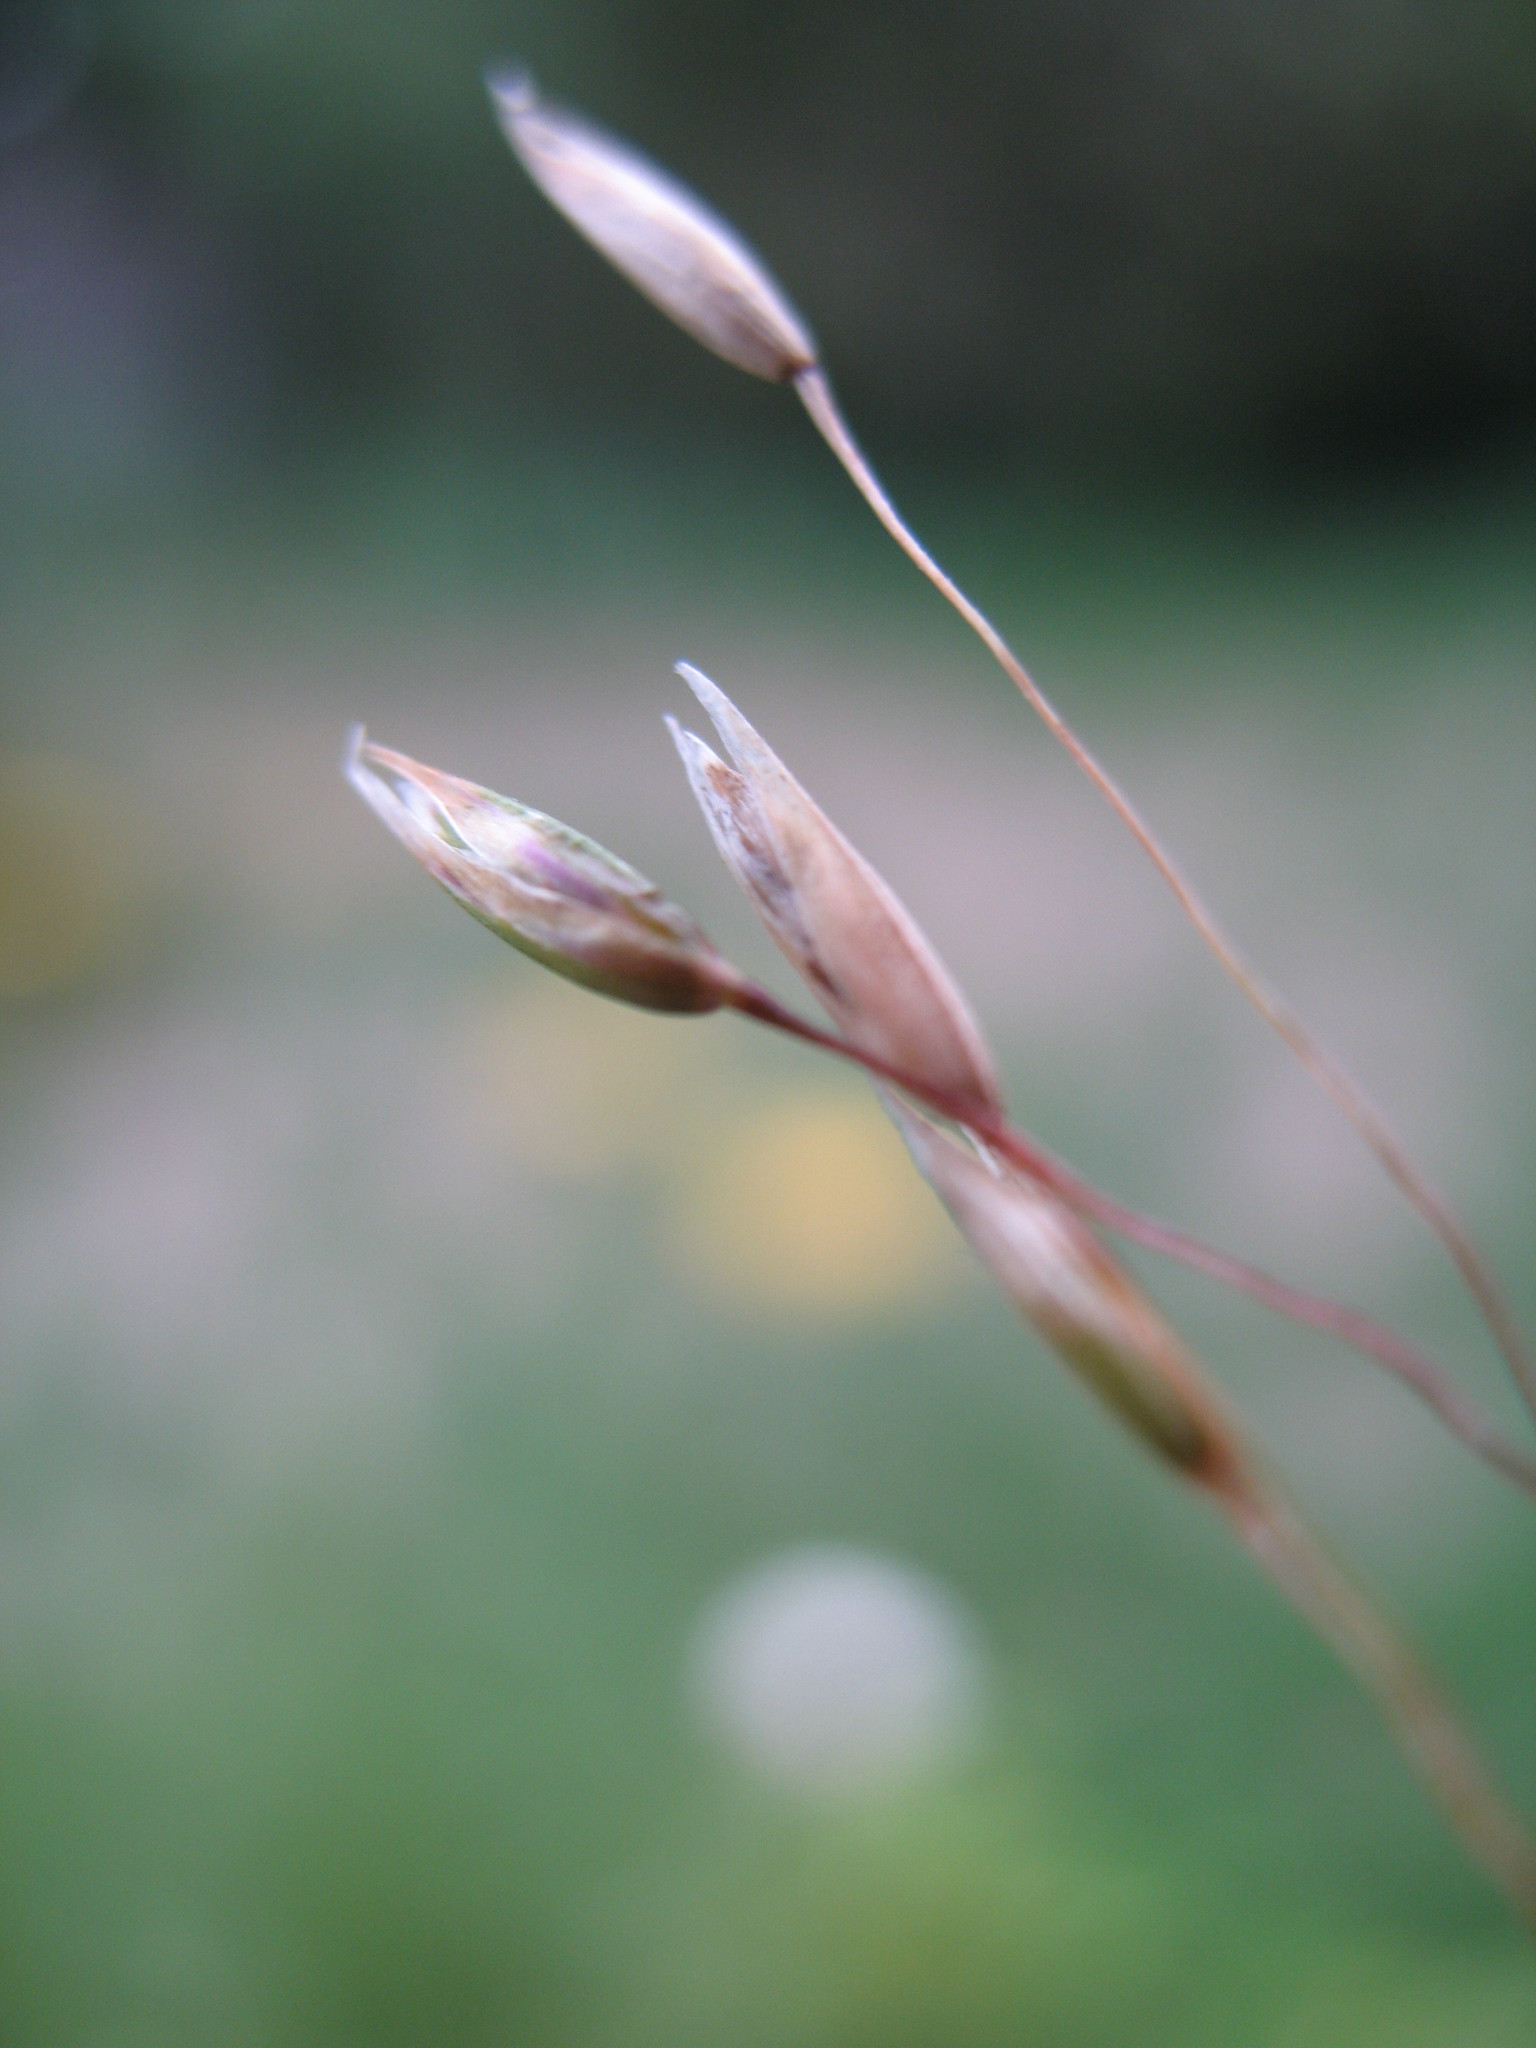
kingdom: Plantae
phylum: Tracheophyta
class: Liliopsida
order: Poales
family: Poaceae
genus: Plinthanthesis
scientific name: Plinthanthesis rodwayi
